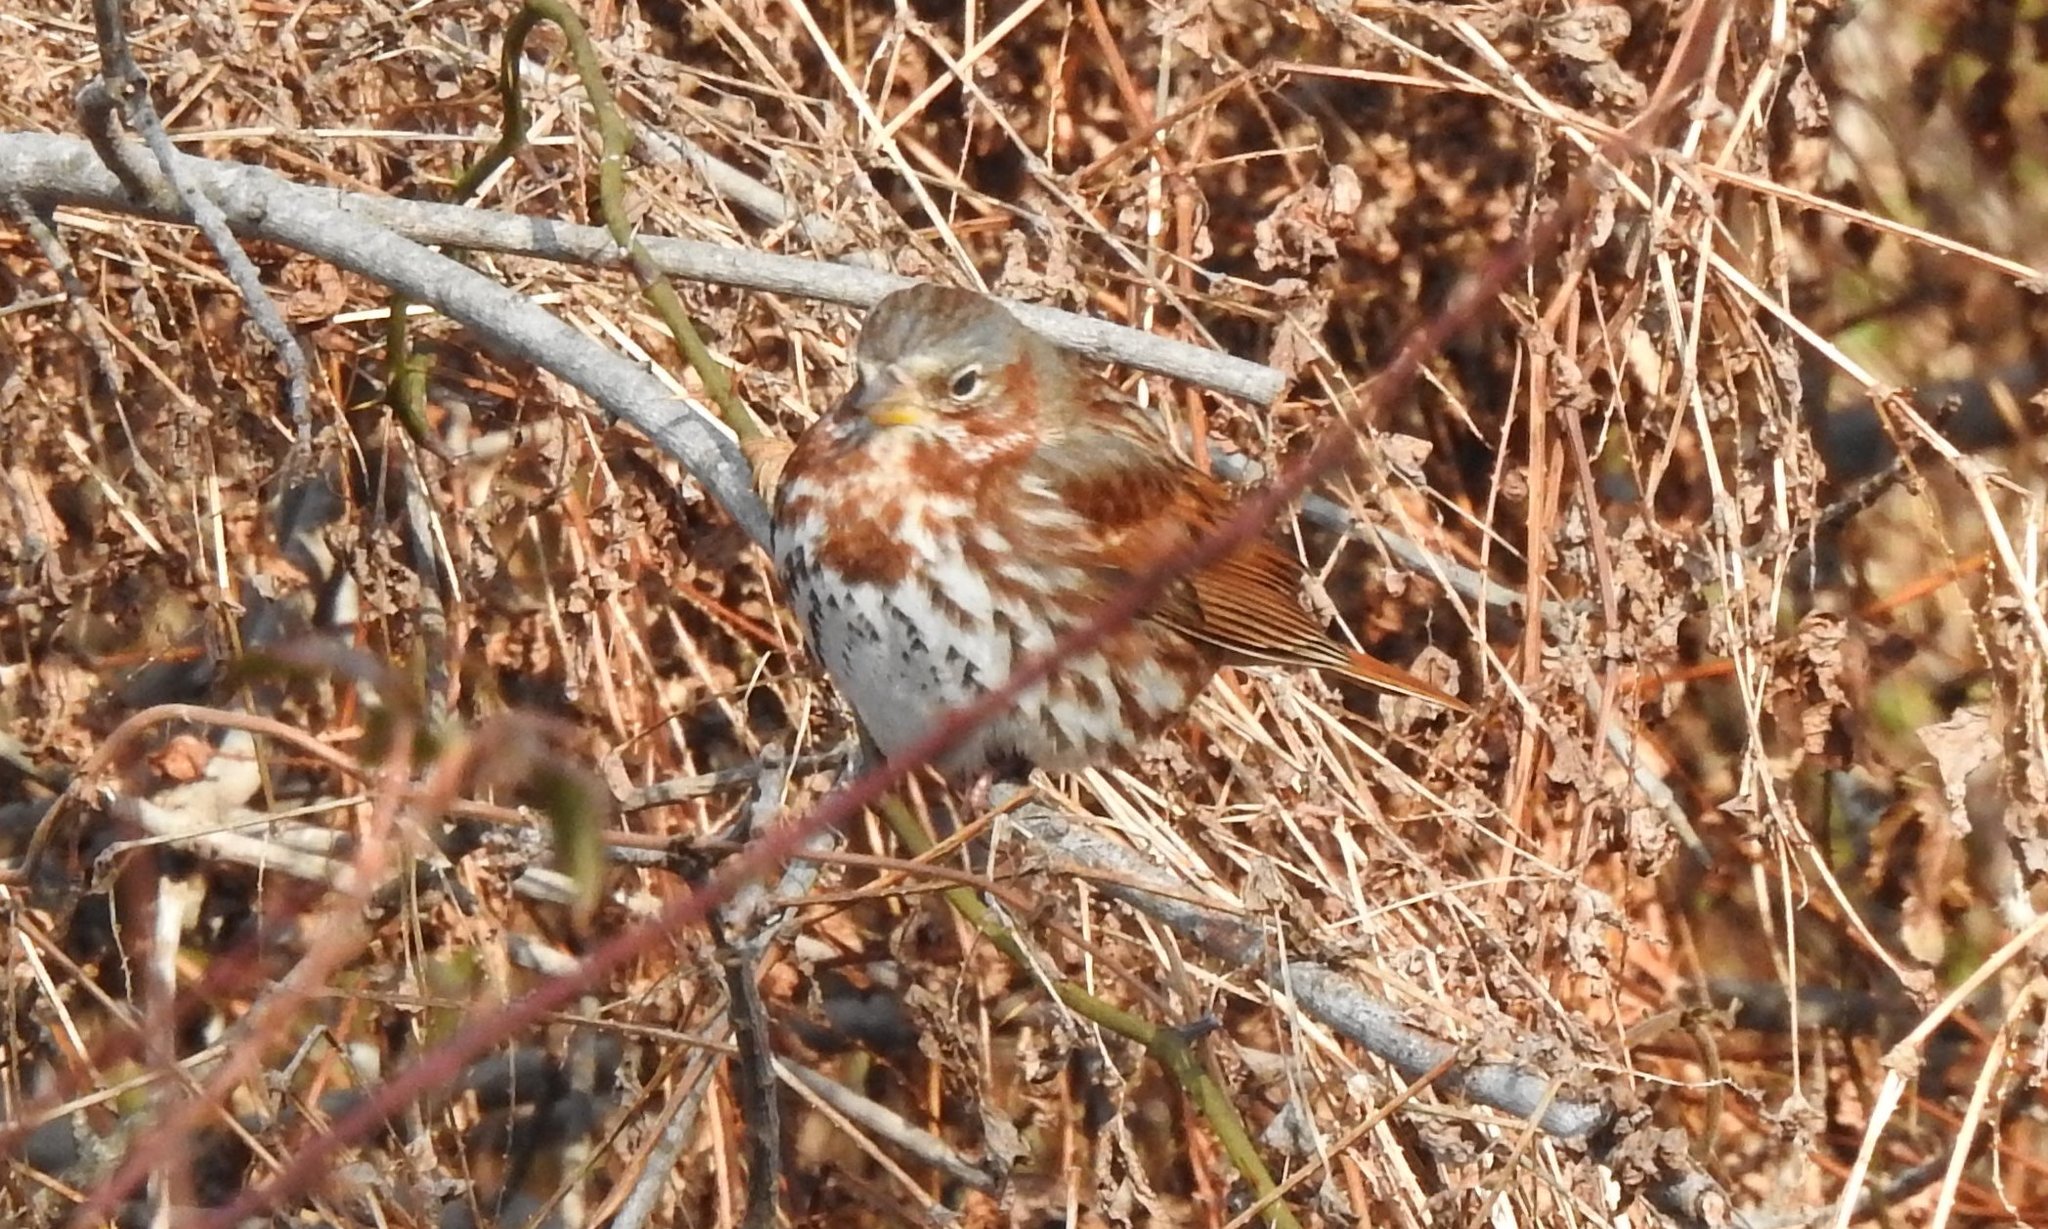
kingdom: Animalia
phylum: Chordata
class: Aves
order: Passeriformes
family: Passerellidae
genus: Passerella
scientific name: Passerella iliaca
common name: Fox sparrow
